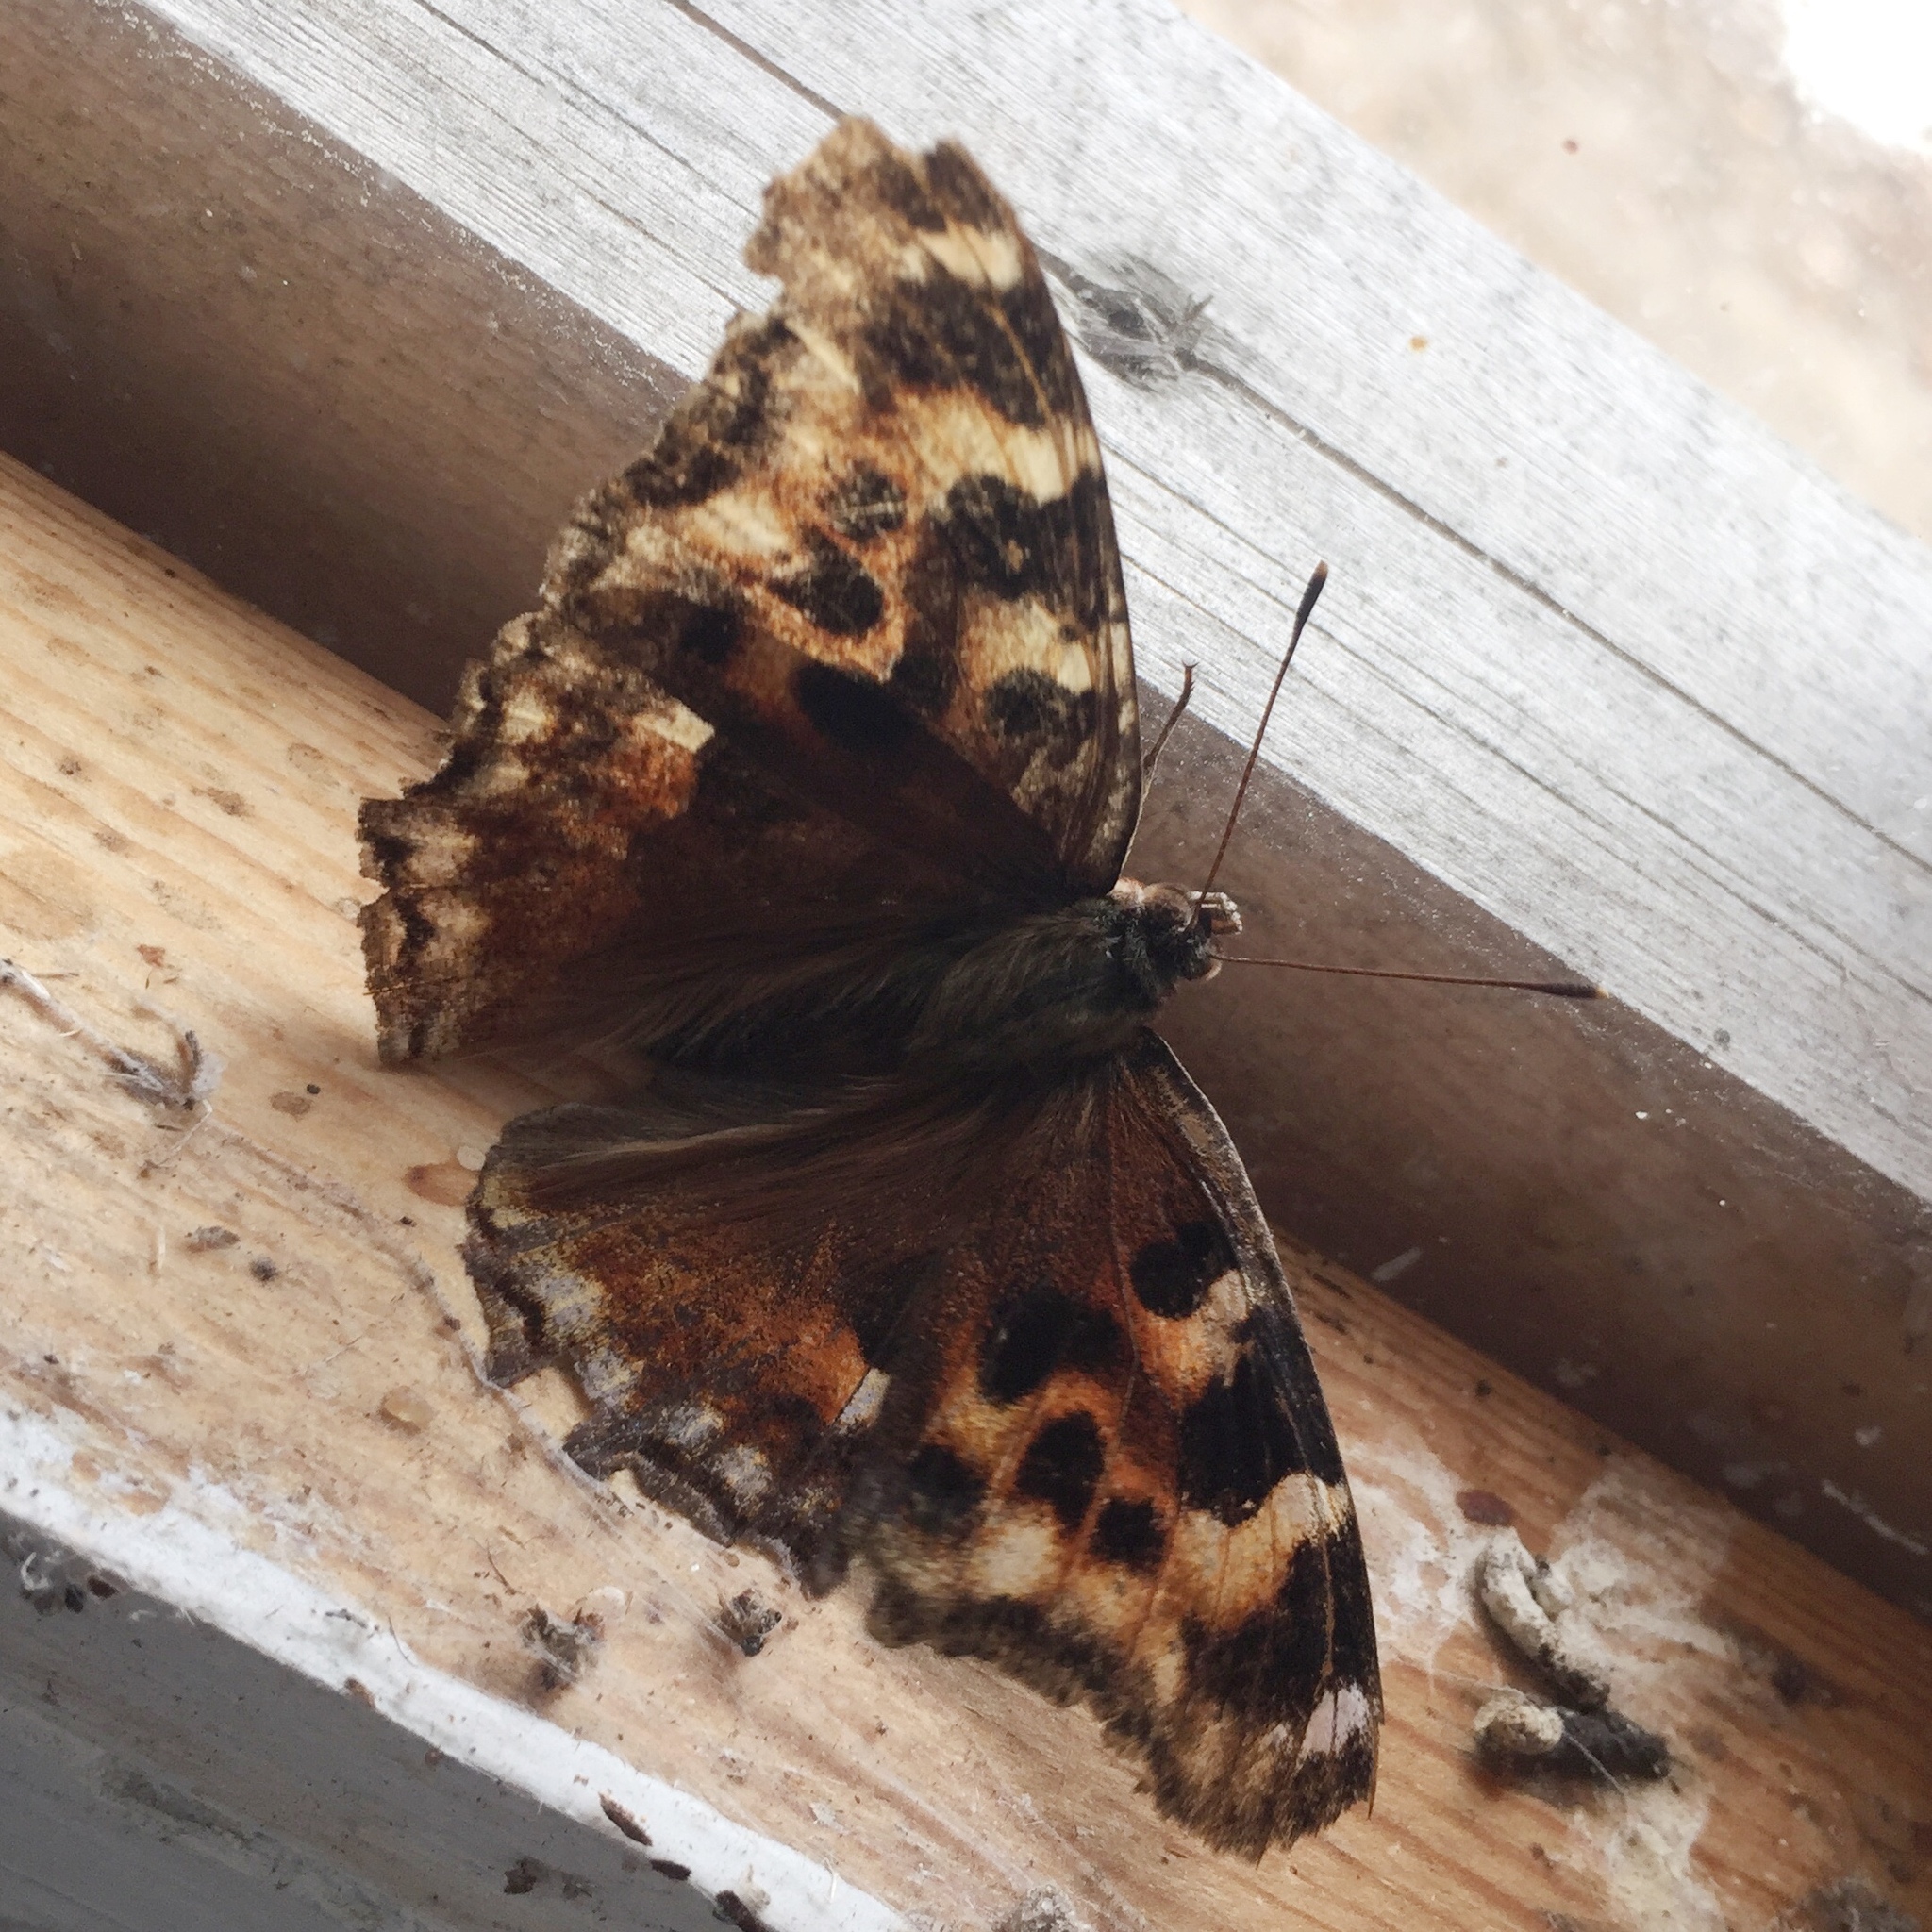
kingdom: Animalia
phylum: Arthropoda
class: Insecta
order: Lepidoptera
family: Nymphalidae
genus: Polygonia
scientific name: Polygonia vaualbum
